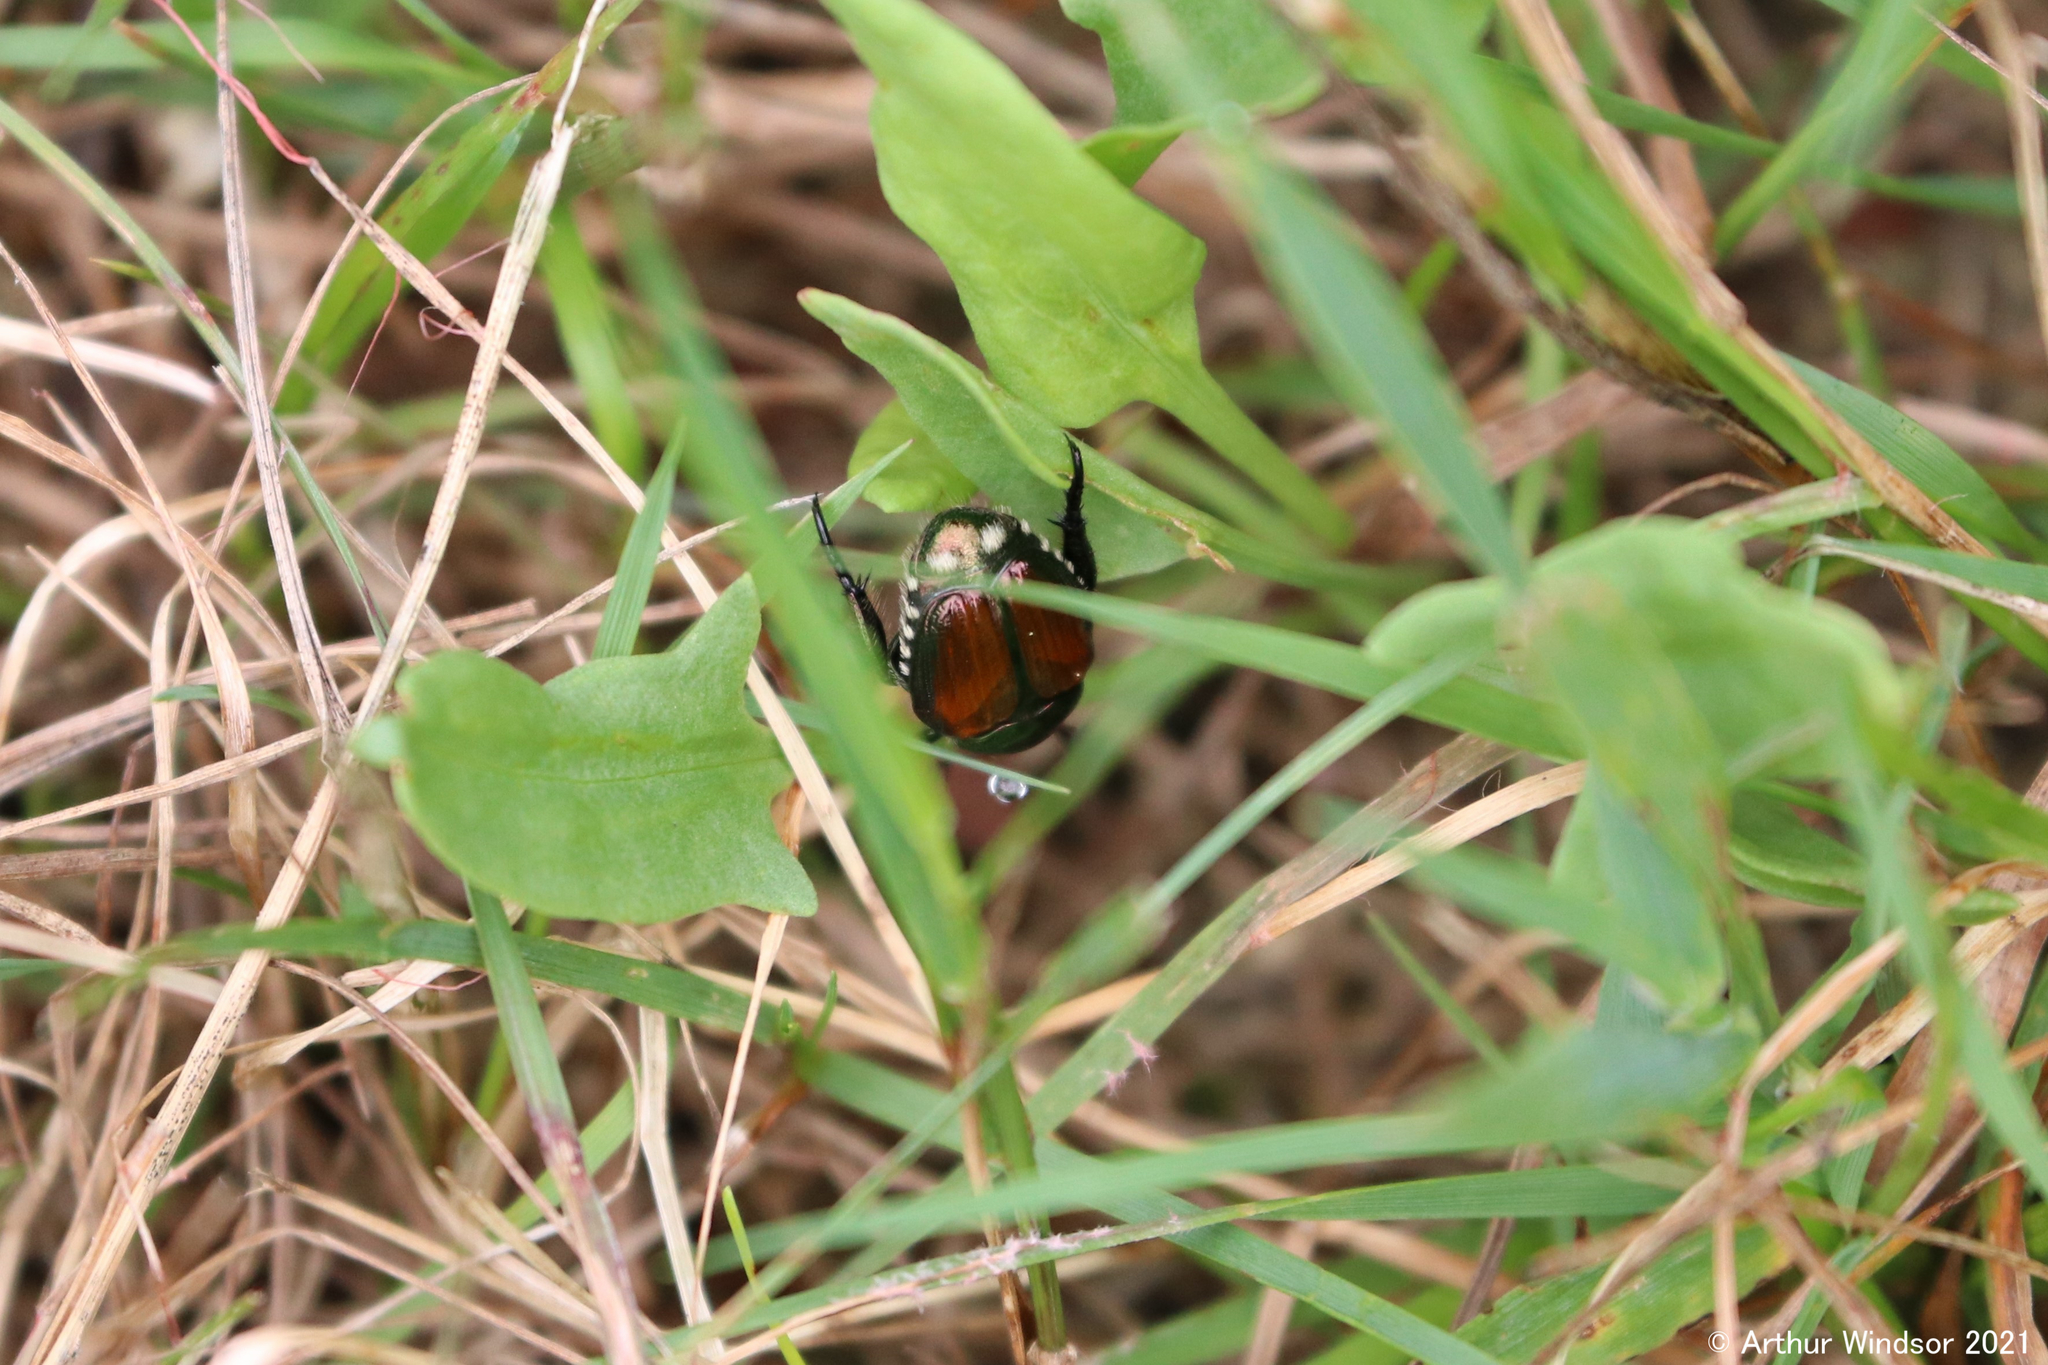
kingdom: Animalia
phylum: Arthropoda
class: Insecta
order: Coleoptera
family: Scarabaeidae
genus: Popillia
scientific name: Popillia japonica
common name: Japanese beetle
